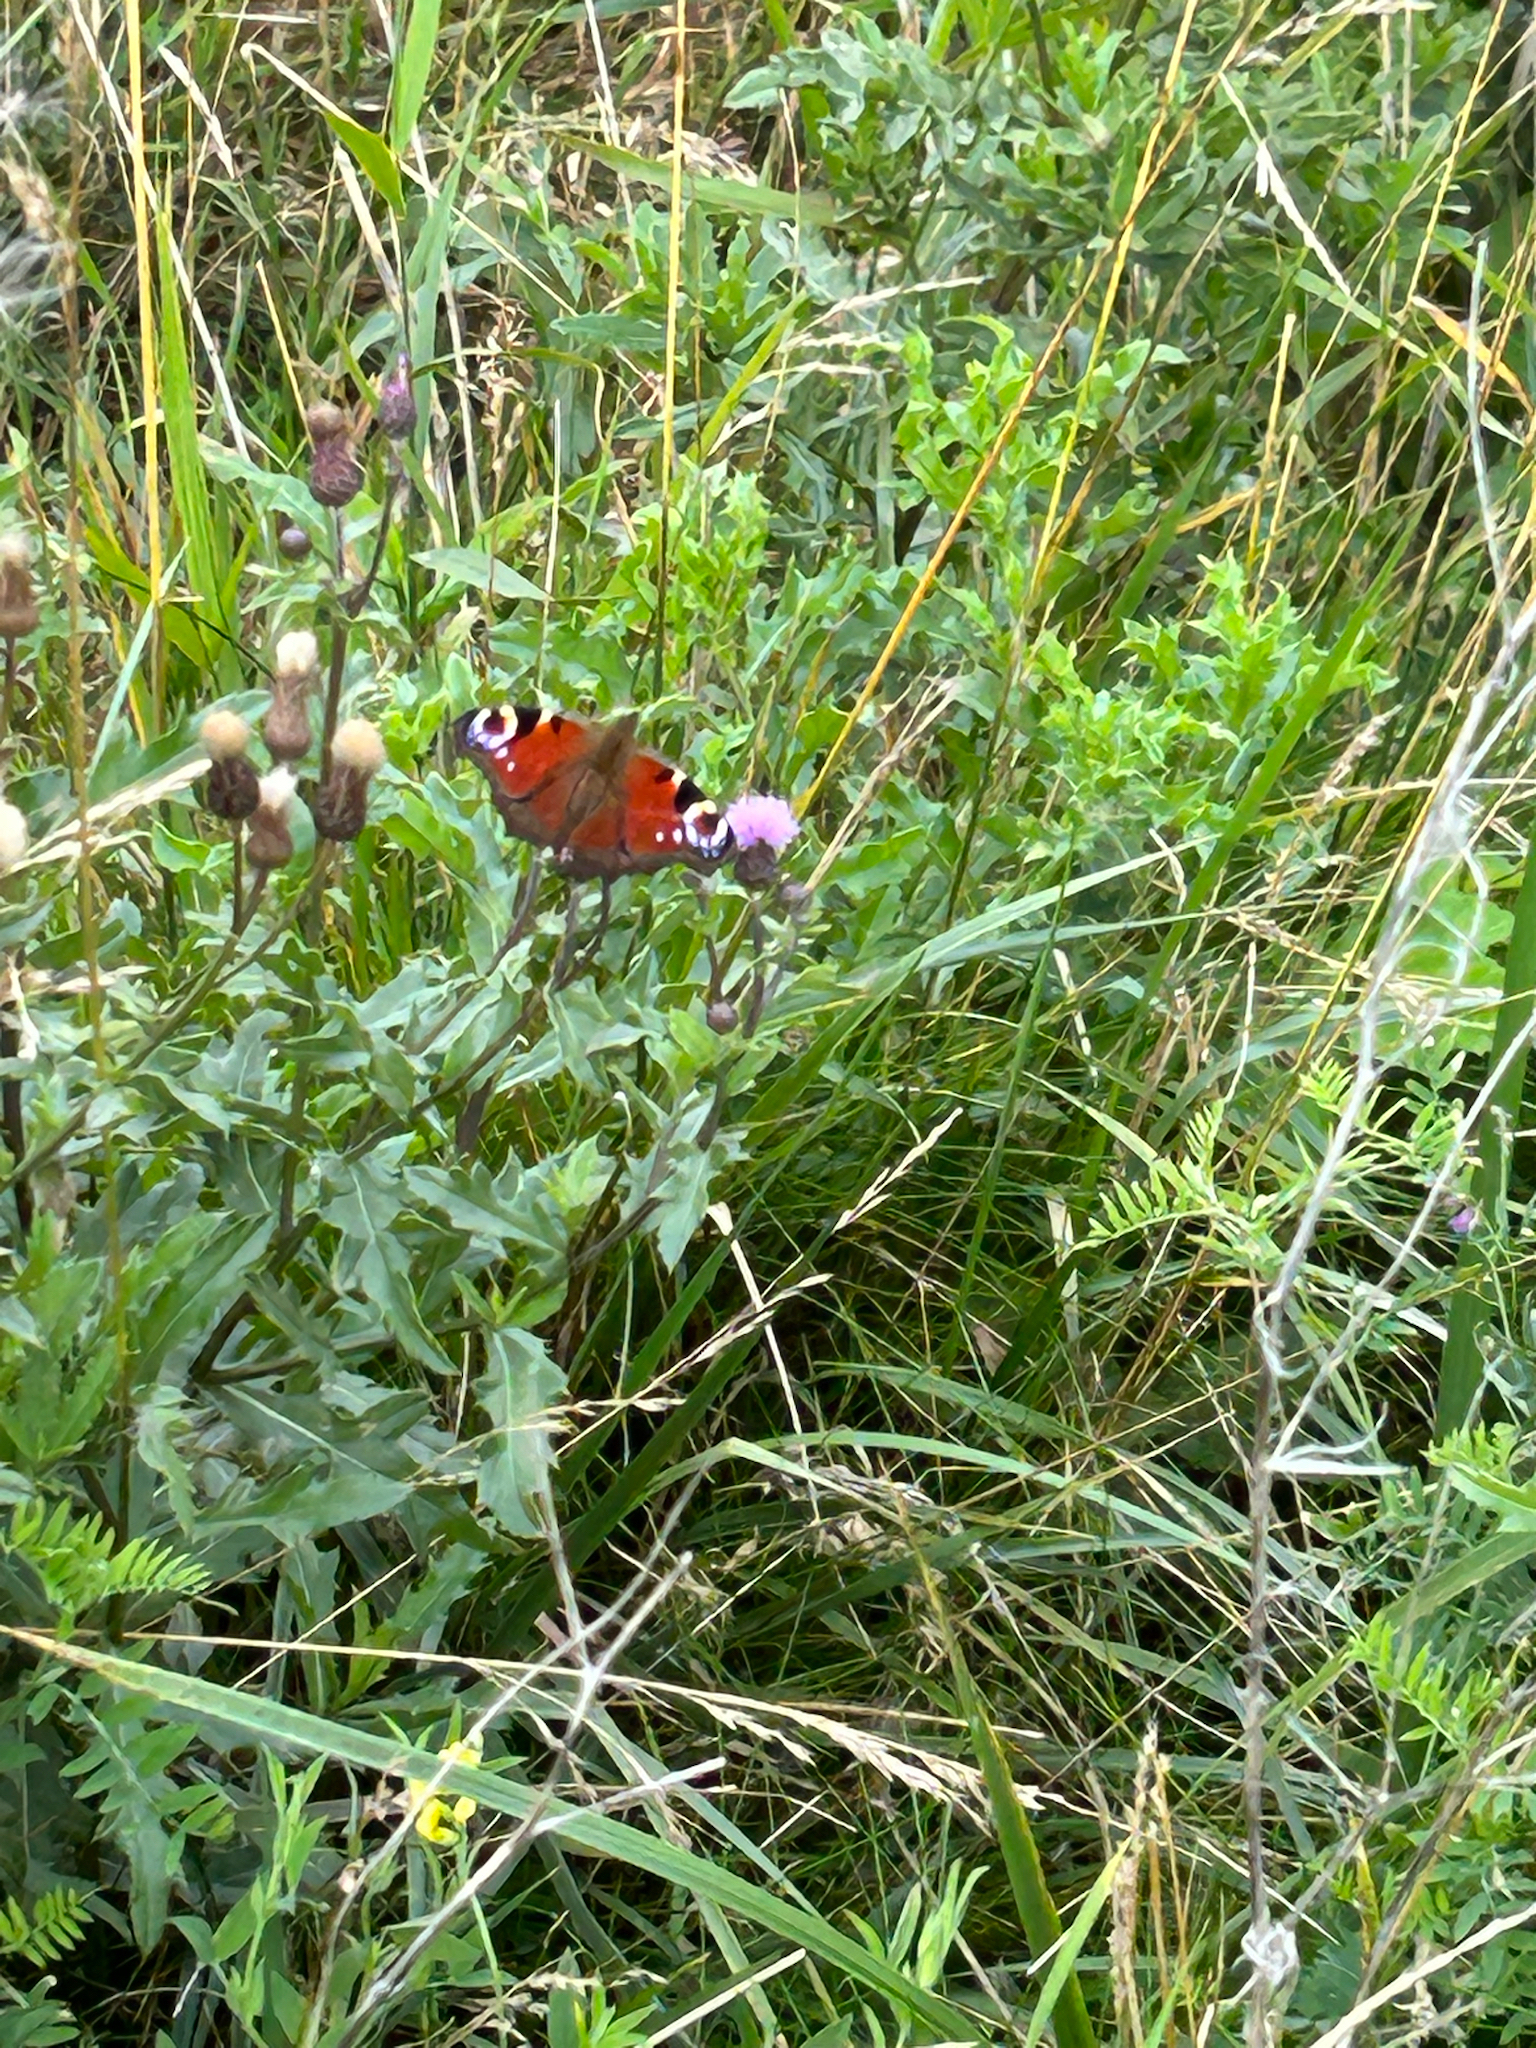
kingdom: Animalia
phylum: Arthropoda
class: Insecta
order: Lepidoptera
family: Nymphalidae
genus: Aglais
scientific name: Aglais io
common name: Peacock
